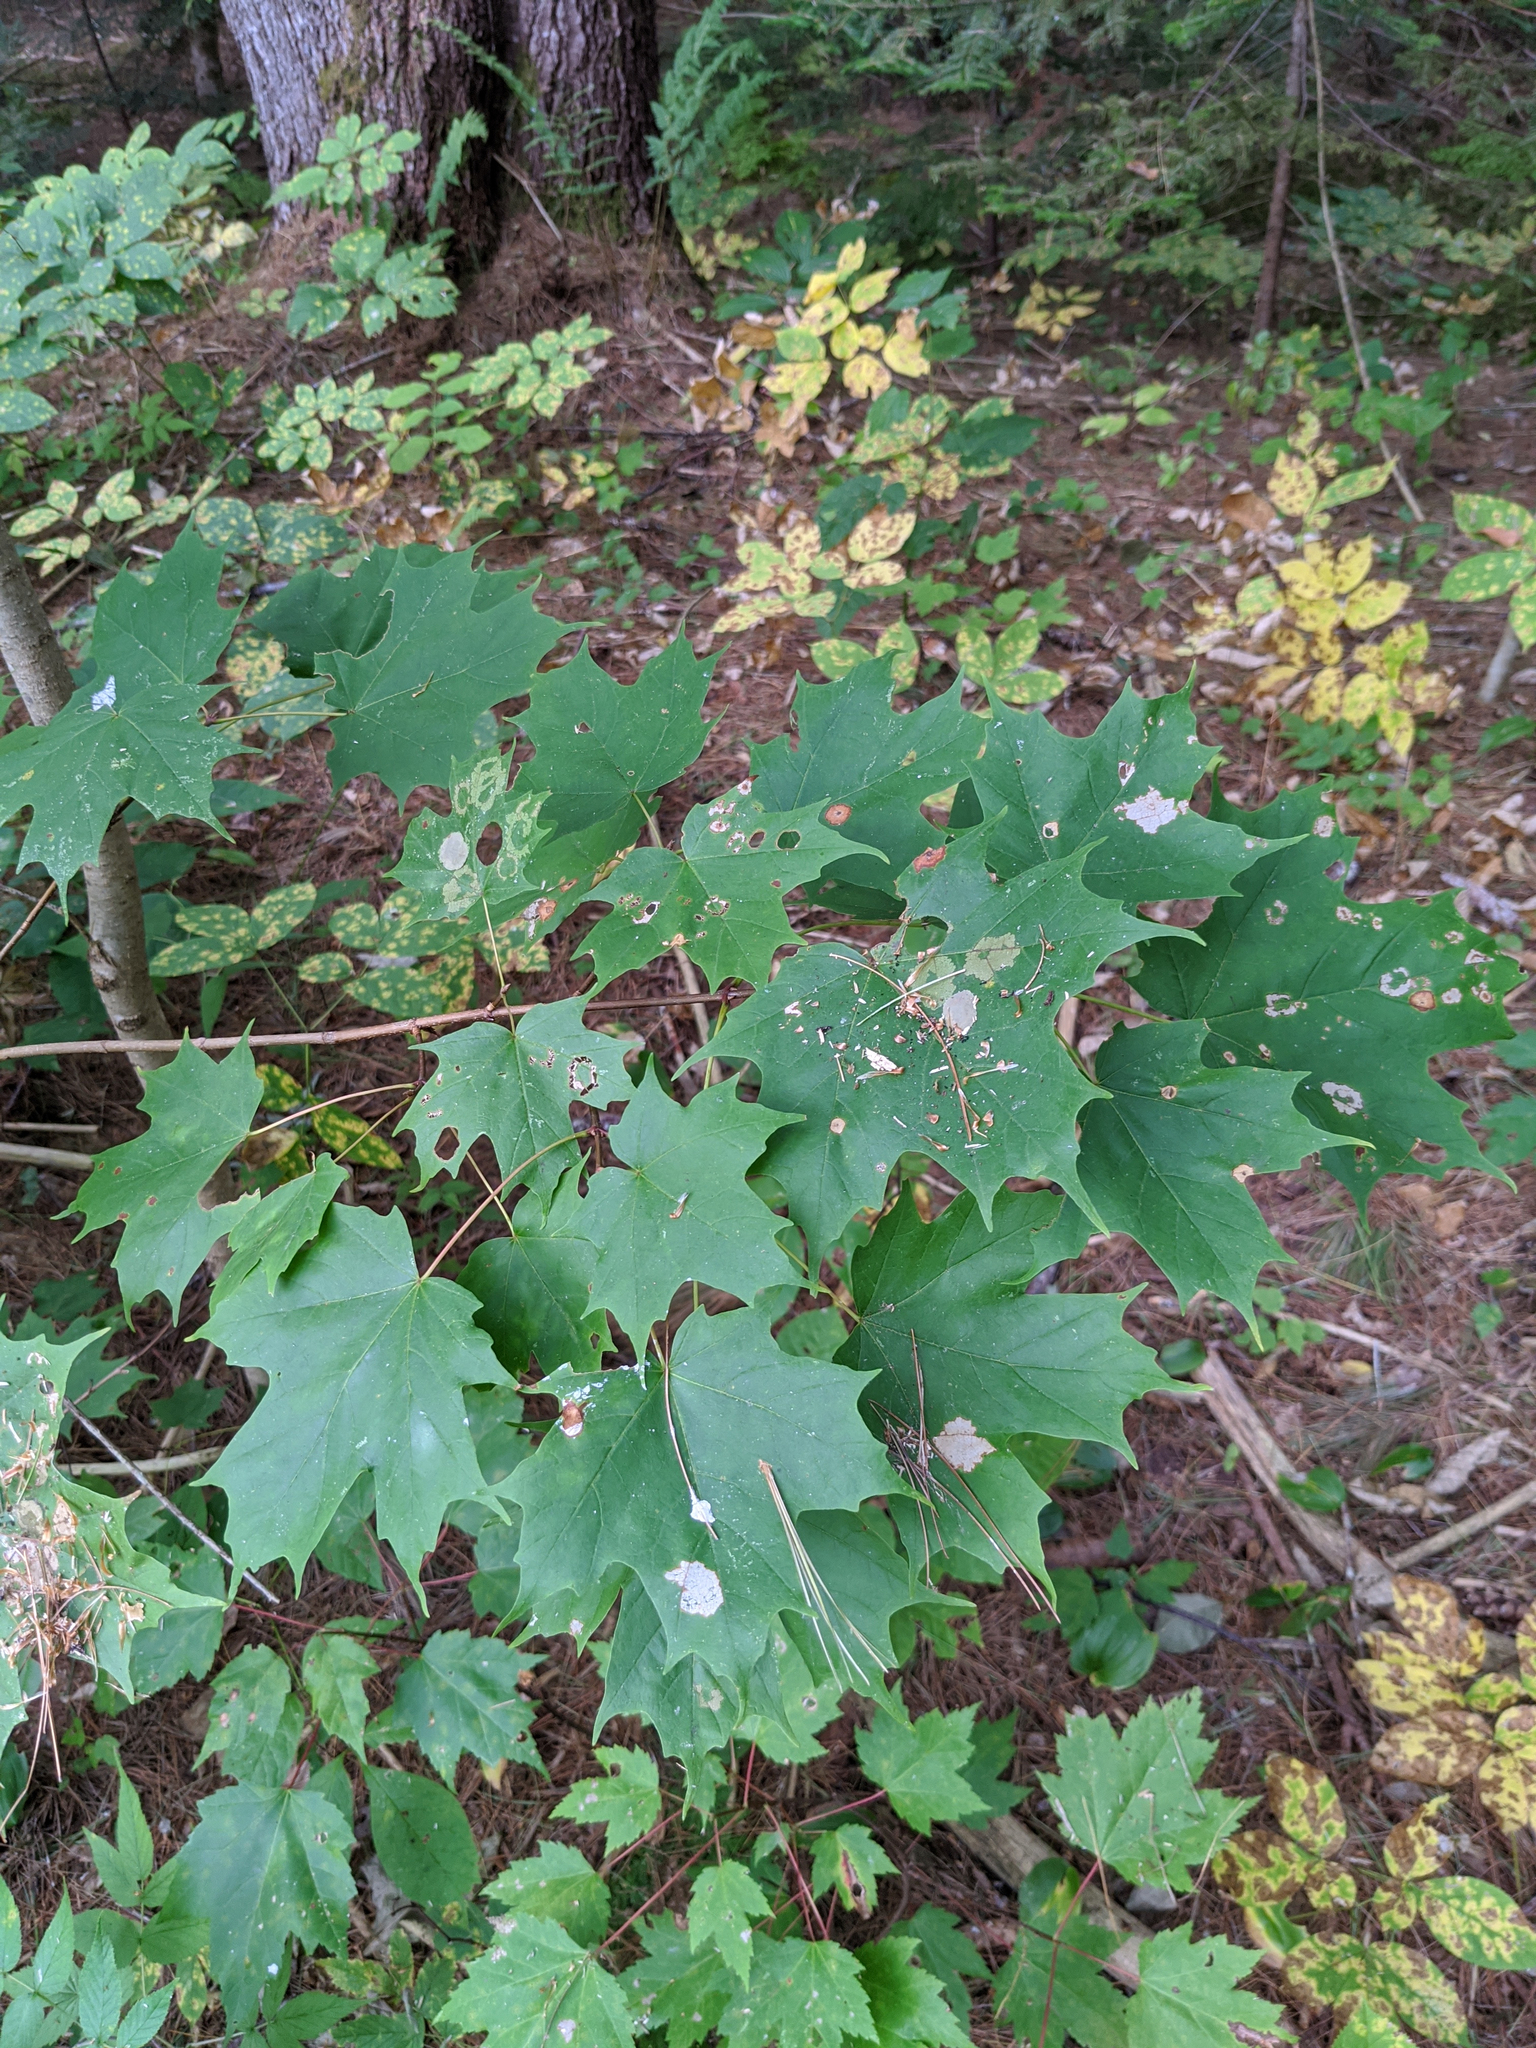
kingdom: Plantae
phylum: Tracheophyta
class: Magnoliopsida
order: Sapindales
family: Sapindaceae
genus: Acer
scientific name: Acer saccharum
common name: Sugar maple
